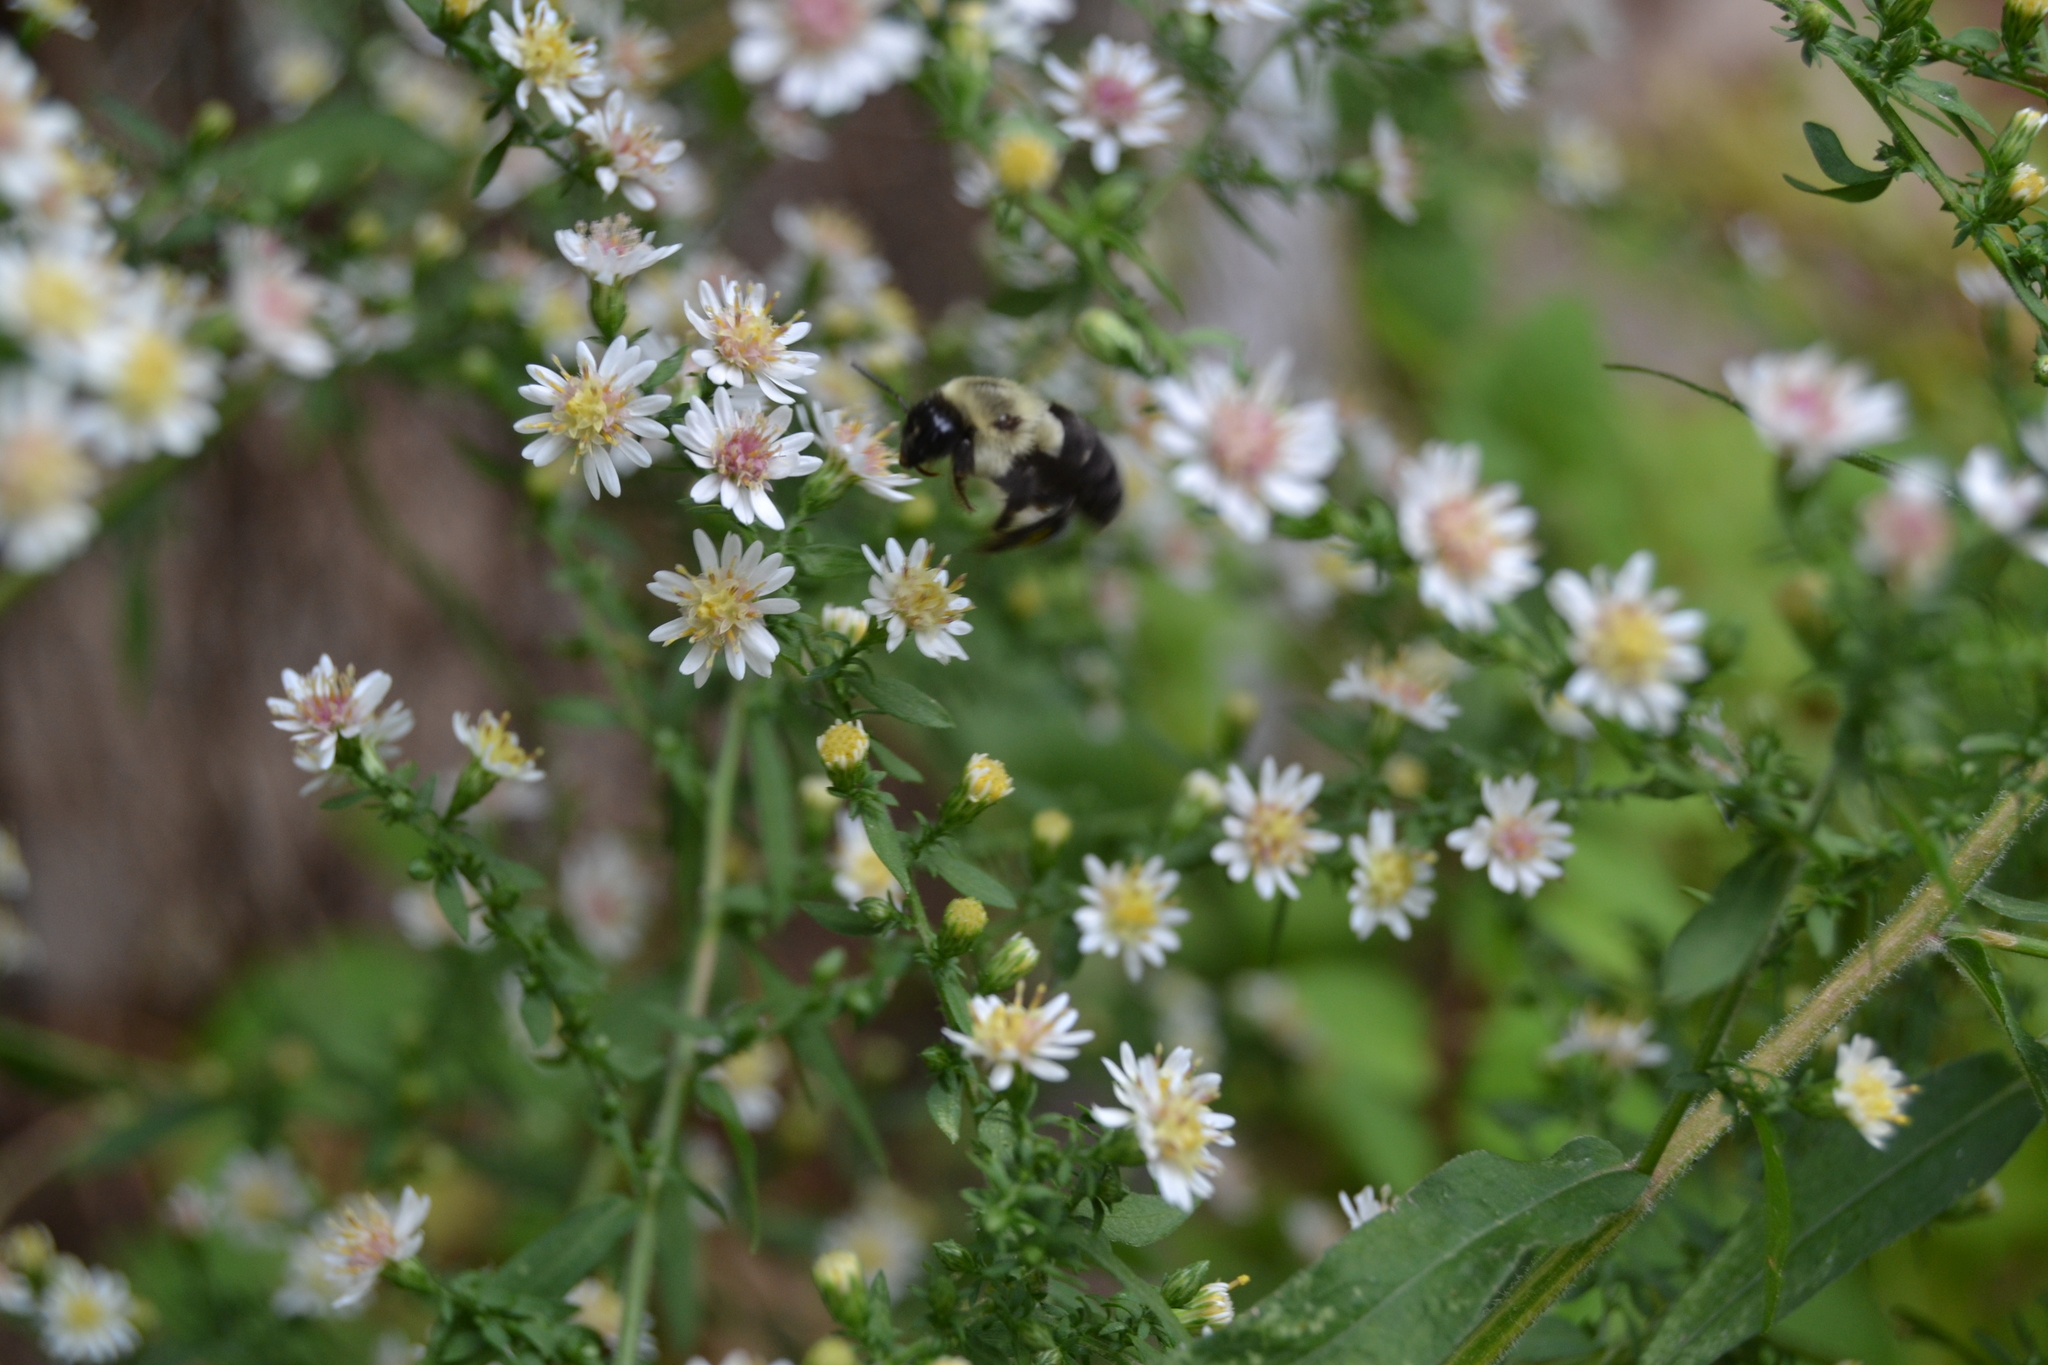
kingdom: Animalia
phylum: Arthropoda
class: Insecta
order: Hymenoptera
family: Apidae
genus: Bombus
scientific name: Bombus impatiens
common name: Common eastern bumble bee
